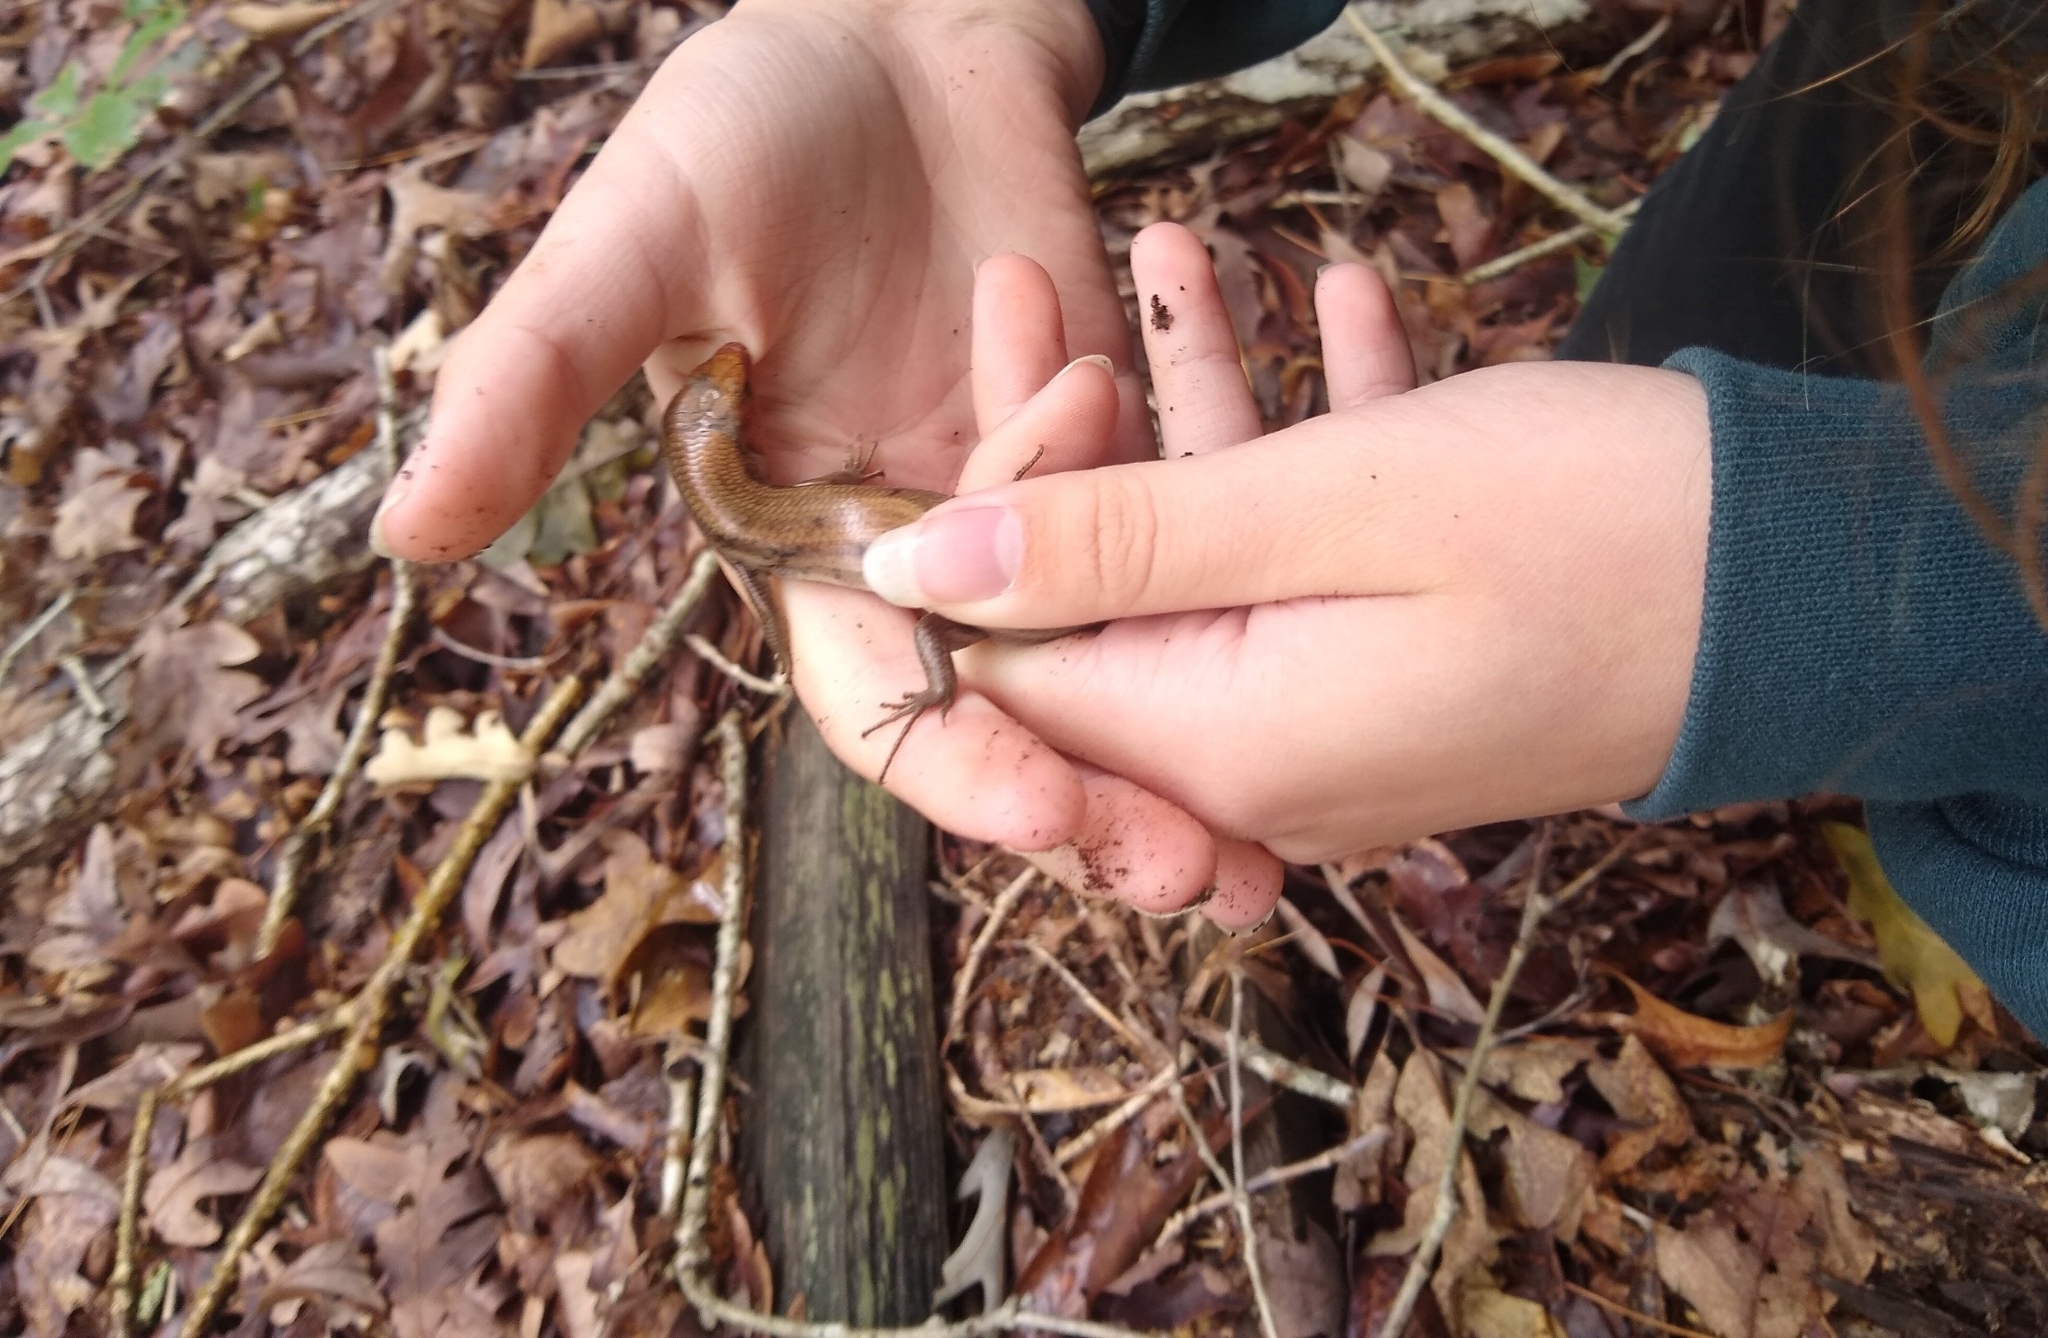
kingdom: Animalia
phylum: Chordata
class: Squamata
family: Scincidae
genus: Plestiodon
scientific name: Plestiodon fasciatus
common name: Five-lined skink
